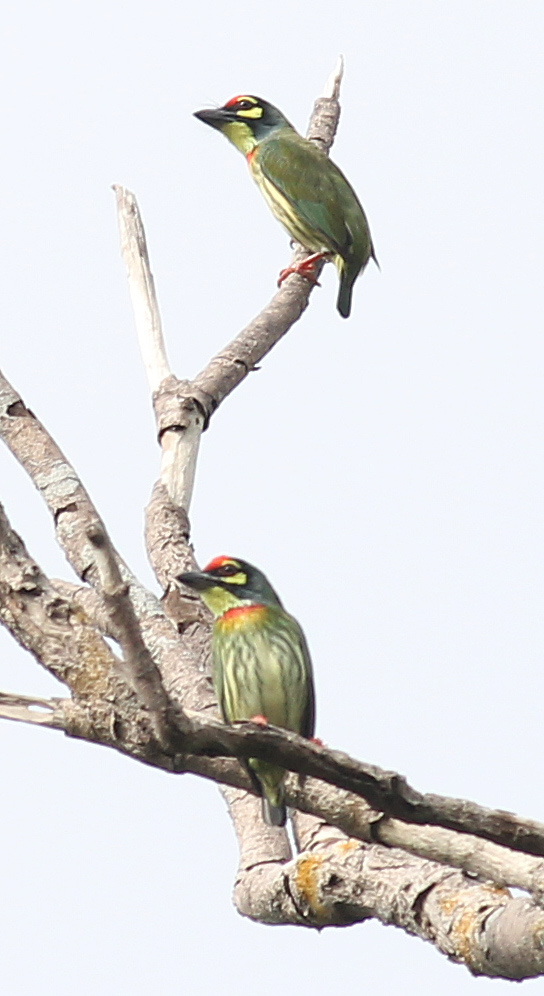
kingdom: Animalia
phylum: Chordata
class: Aves
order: Piciformes
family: Megalaimidae
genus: Psilopogon
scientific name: Psilopogon haemacephalus
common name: Coppersmith barbet
